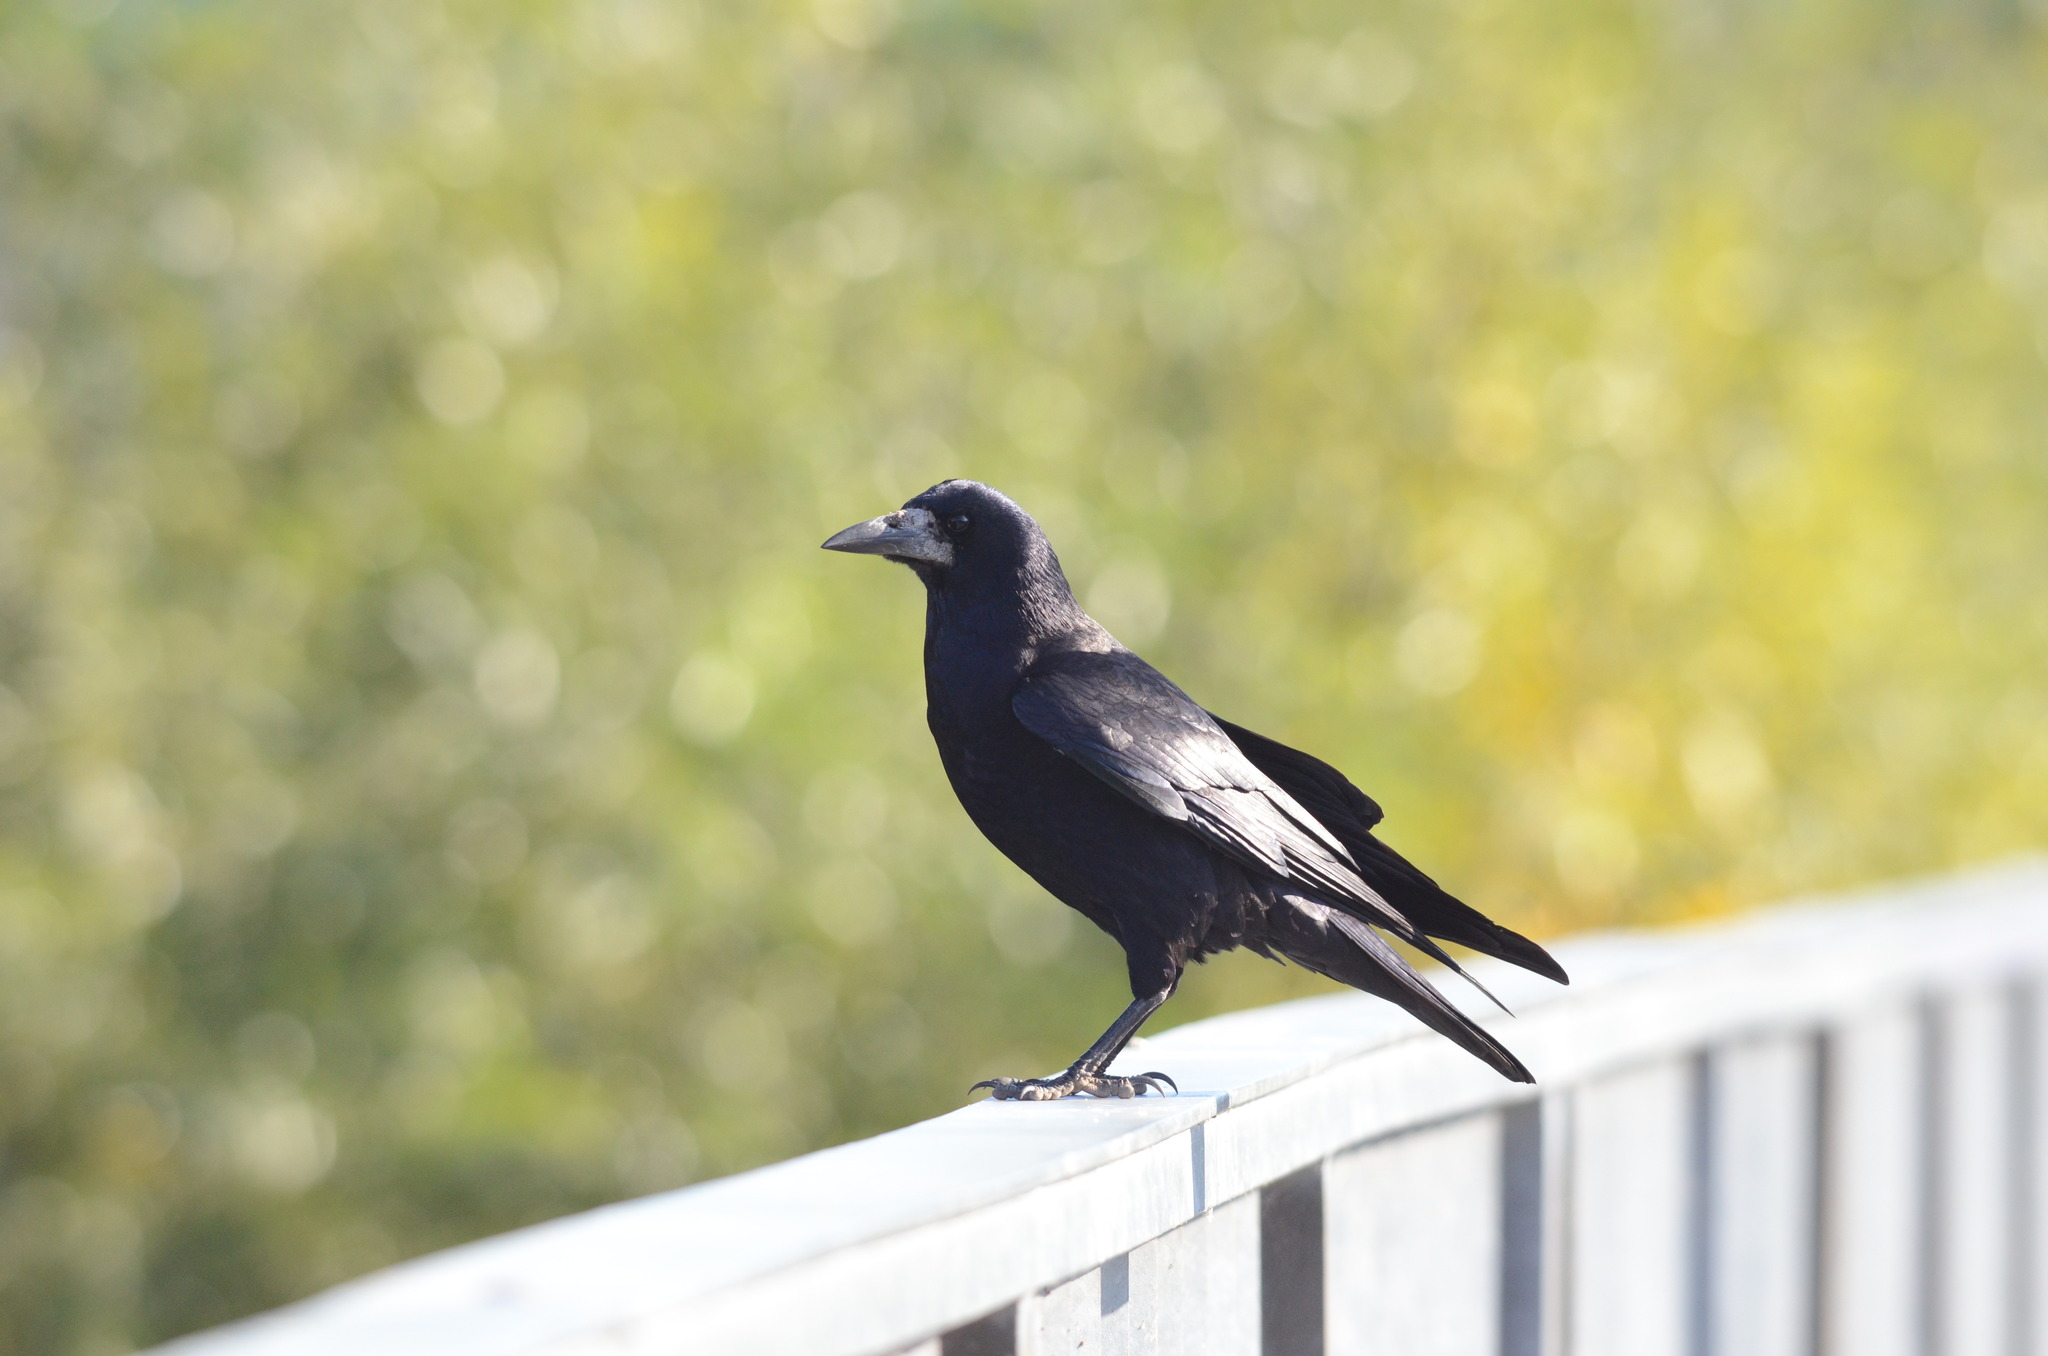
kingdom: Animalia
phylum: Chordata
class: Aves
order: Passeriformes
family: Corvidae
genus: Corvus
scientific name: Corvus frugilegus
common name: Rook
